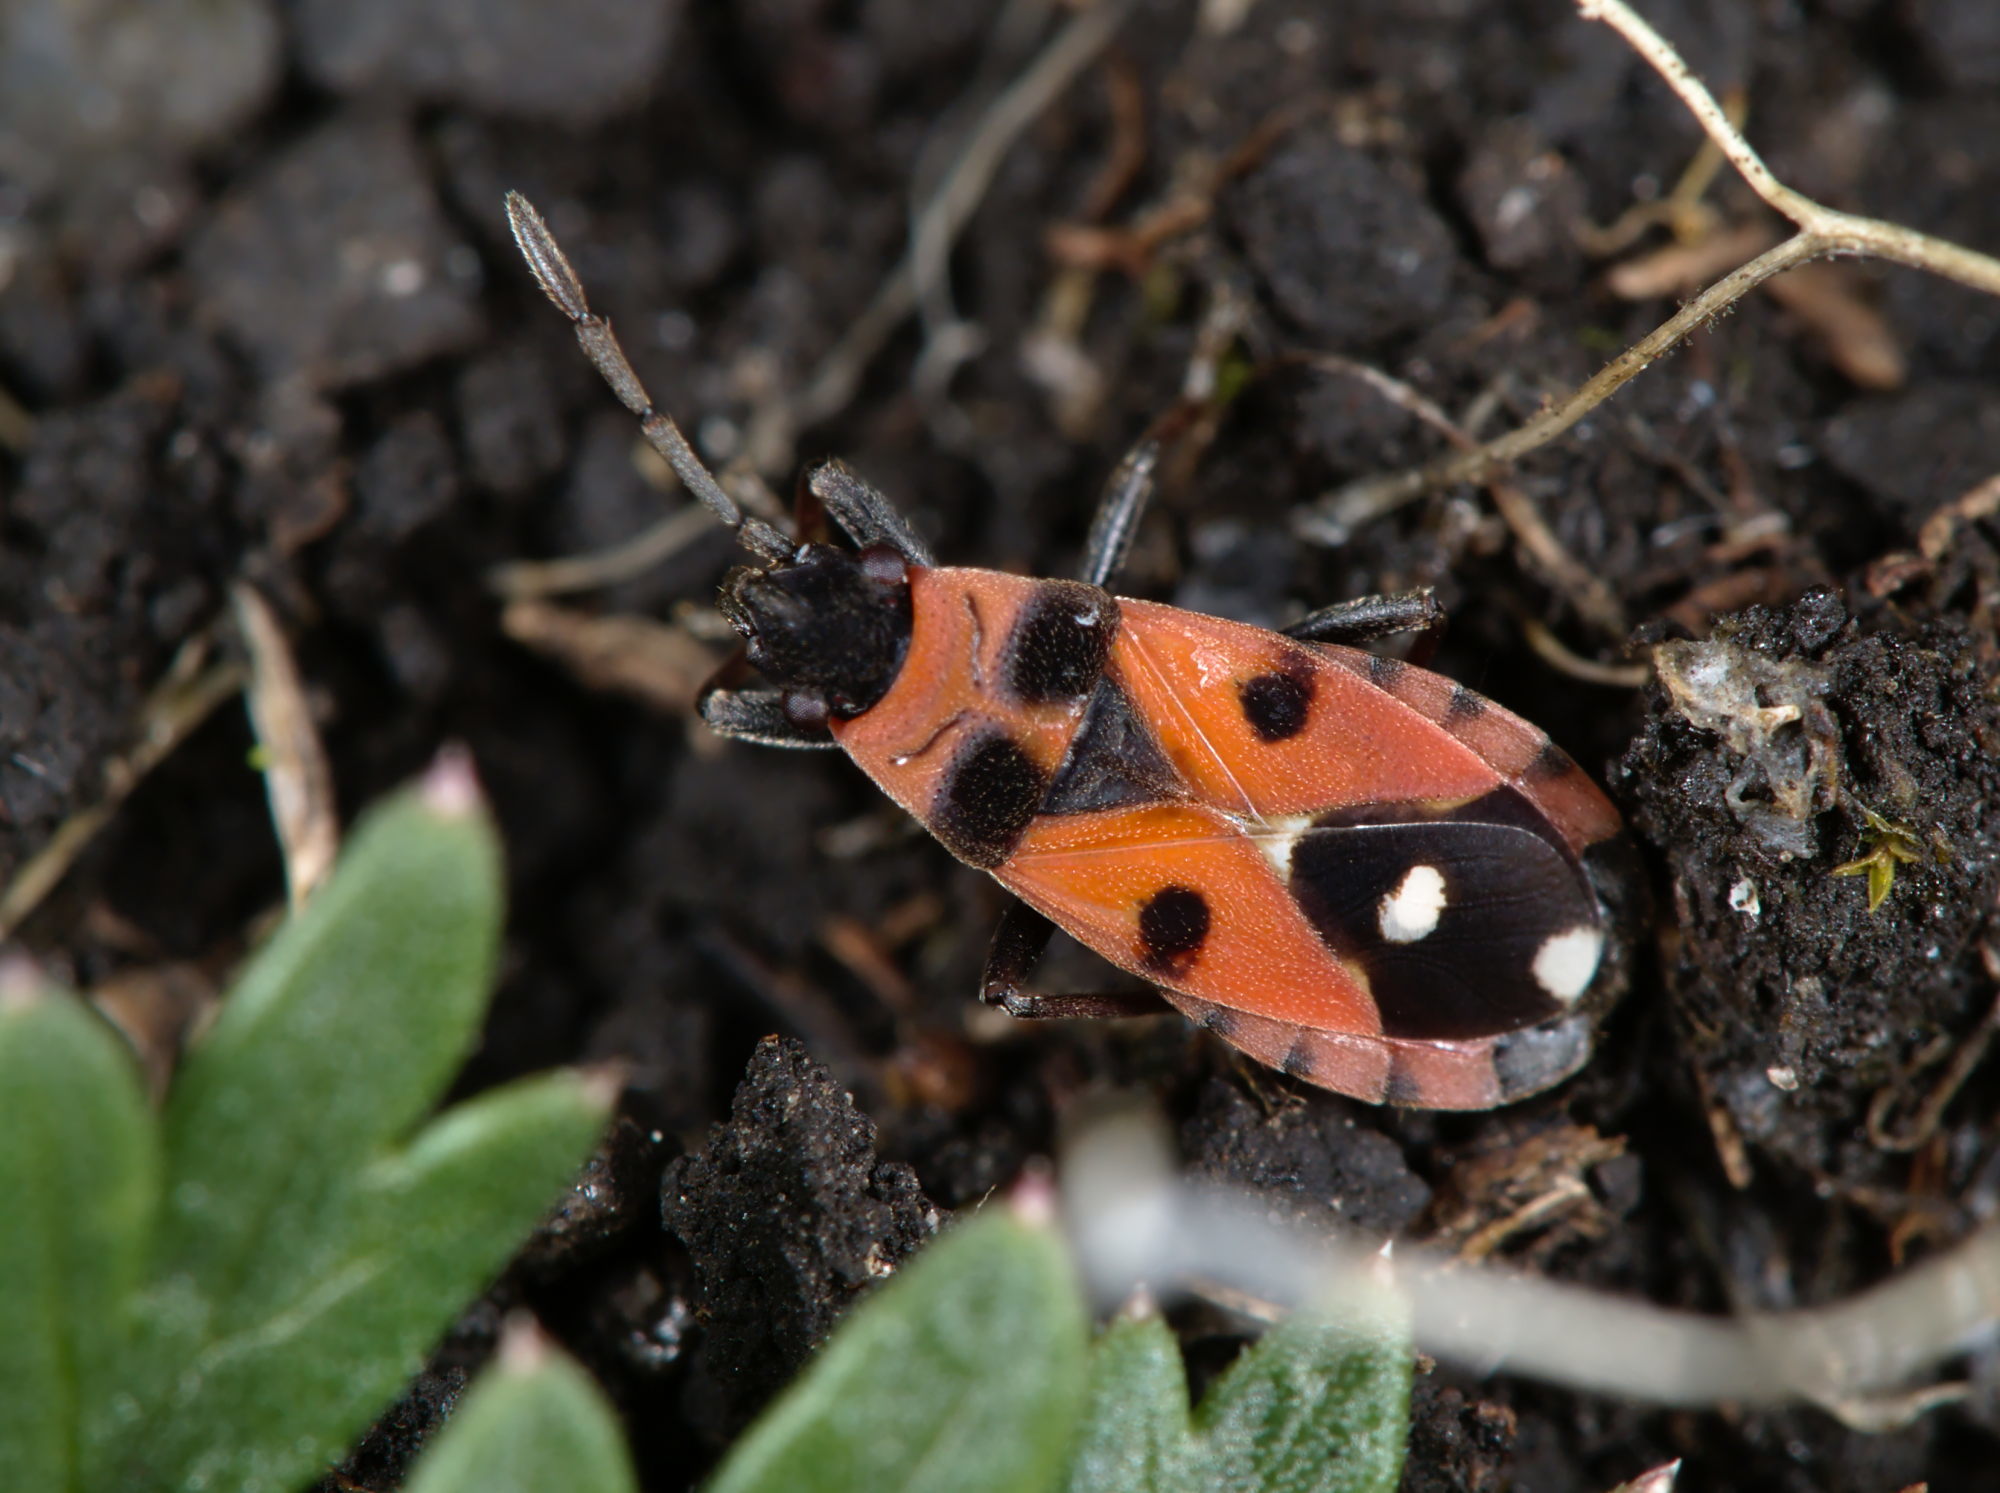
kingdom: Animalia
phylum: Arthropoda
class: Insecta
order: Hemiptera
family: Lygaeidae
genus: Horvathiolus
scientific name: Horvathiolus superbus
